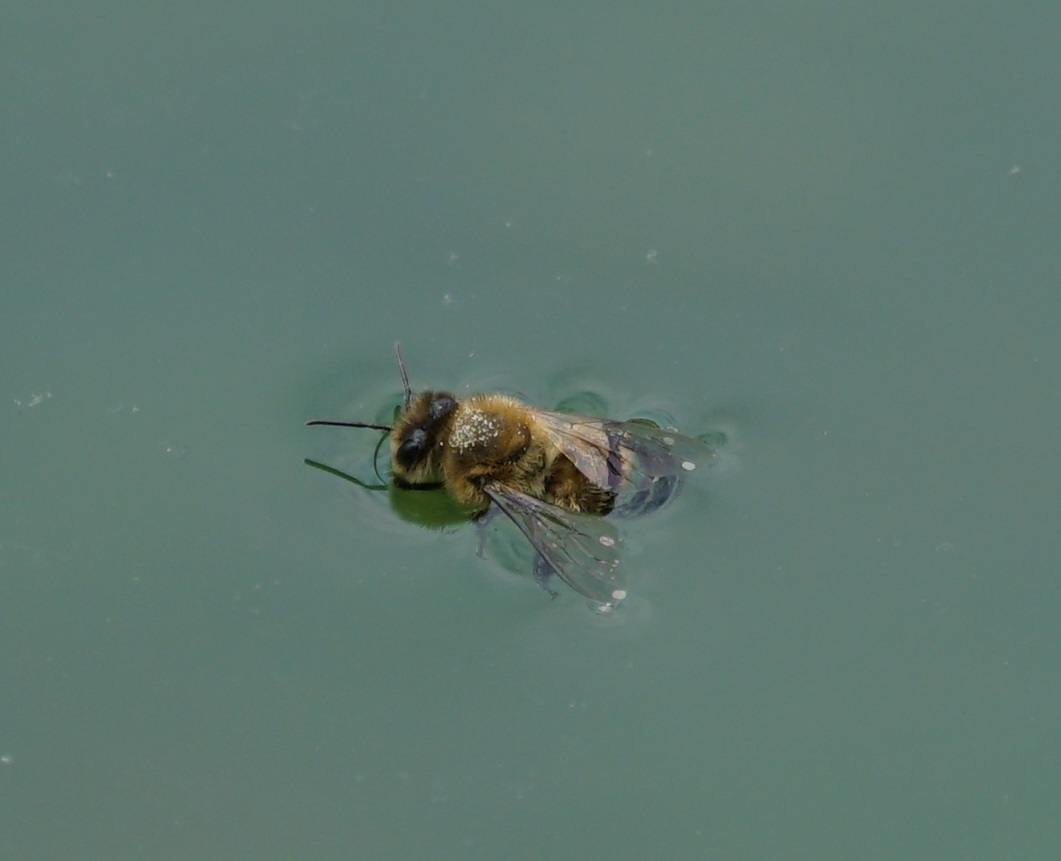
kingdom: Animalia
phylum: Arthropoda
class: Insecta
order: Hymenoptera
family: Apidae
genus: Apis
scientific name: Apis mellifera
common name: Honey bee
